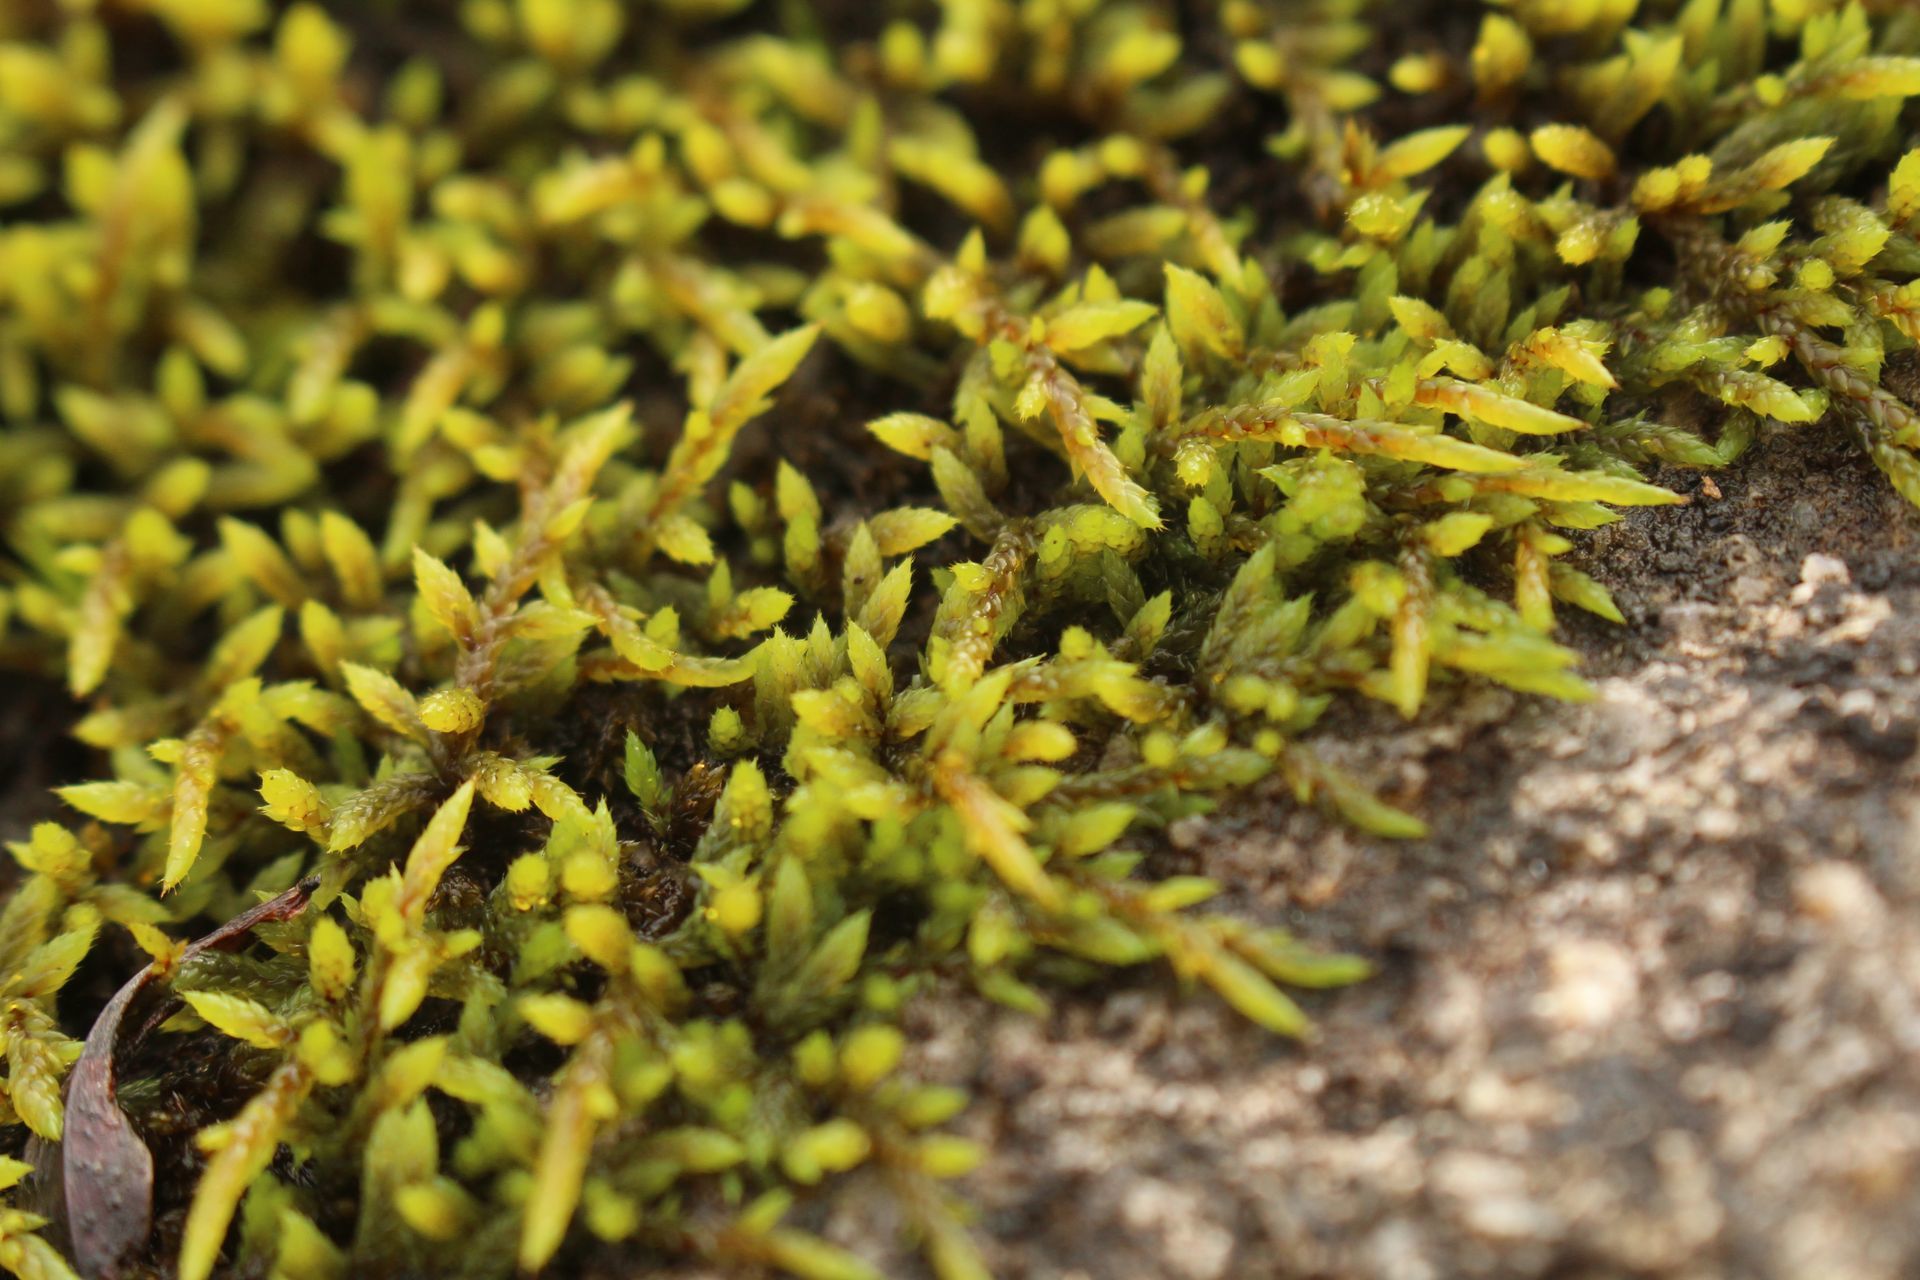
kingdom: Plantae
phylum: Bryophyta
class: Bryopsida
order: Hedwigiales
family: Hedwigiaceae
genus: Rhacocarpus
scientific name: Rhacocarpus purpurascens
